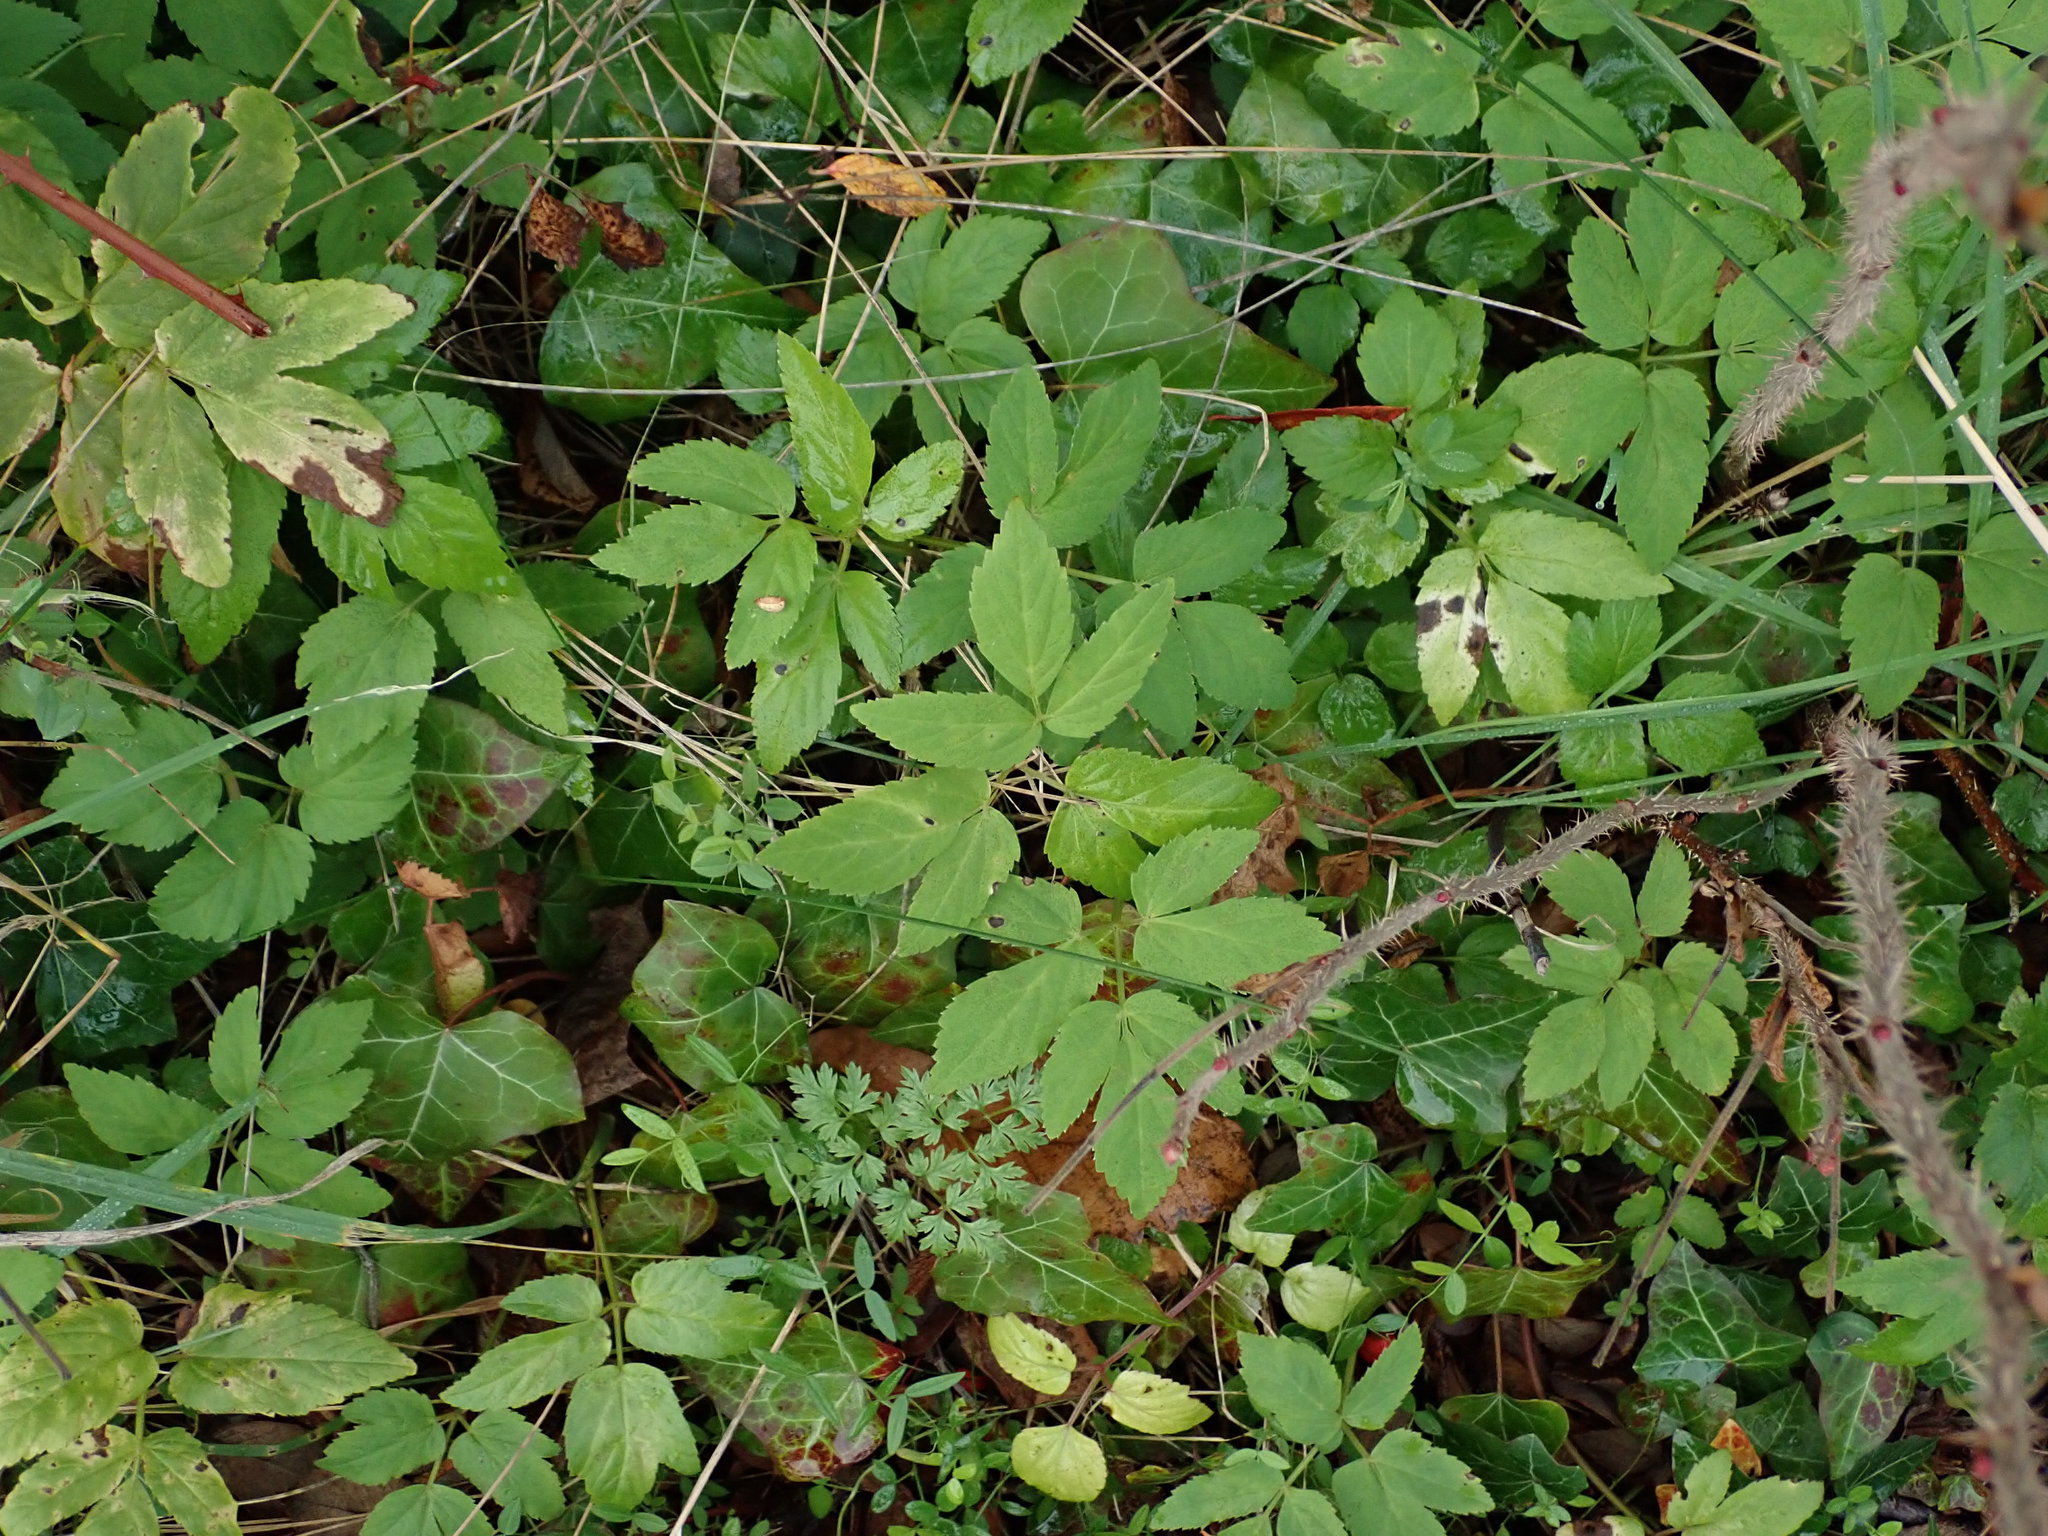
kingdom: Plantae
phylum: Tracheophyta
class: Magnoliopsida
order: Apiales
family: Apiaceae
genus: Aegopodium
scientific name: Aegopodium podagraria
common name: Ground-elder
